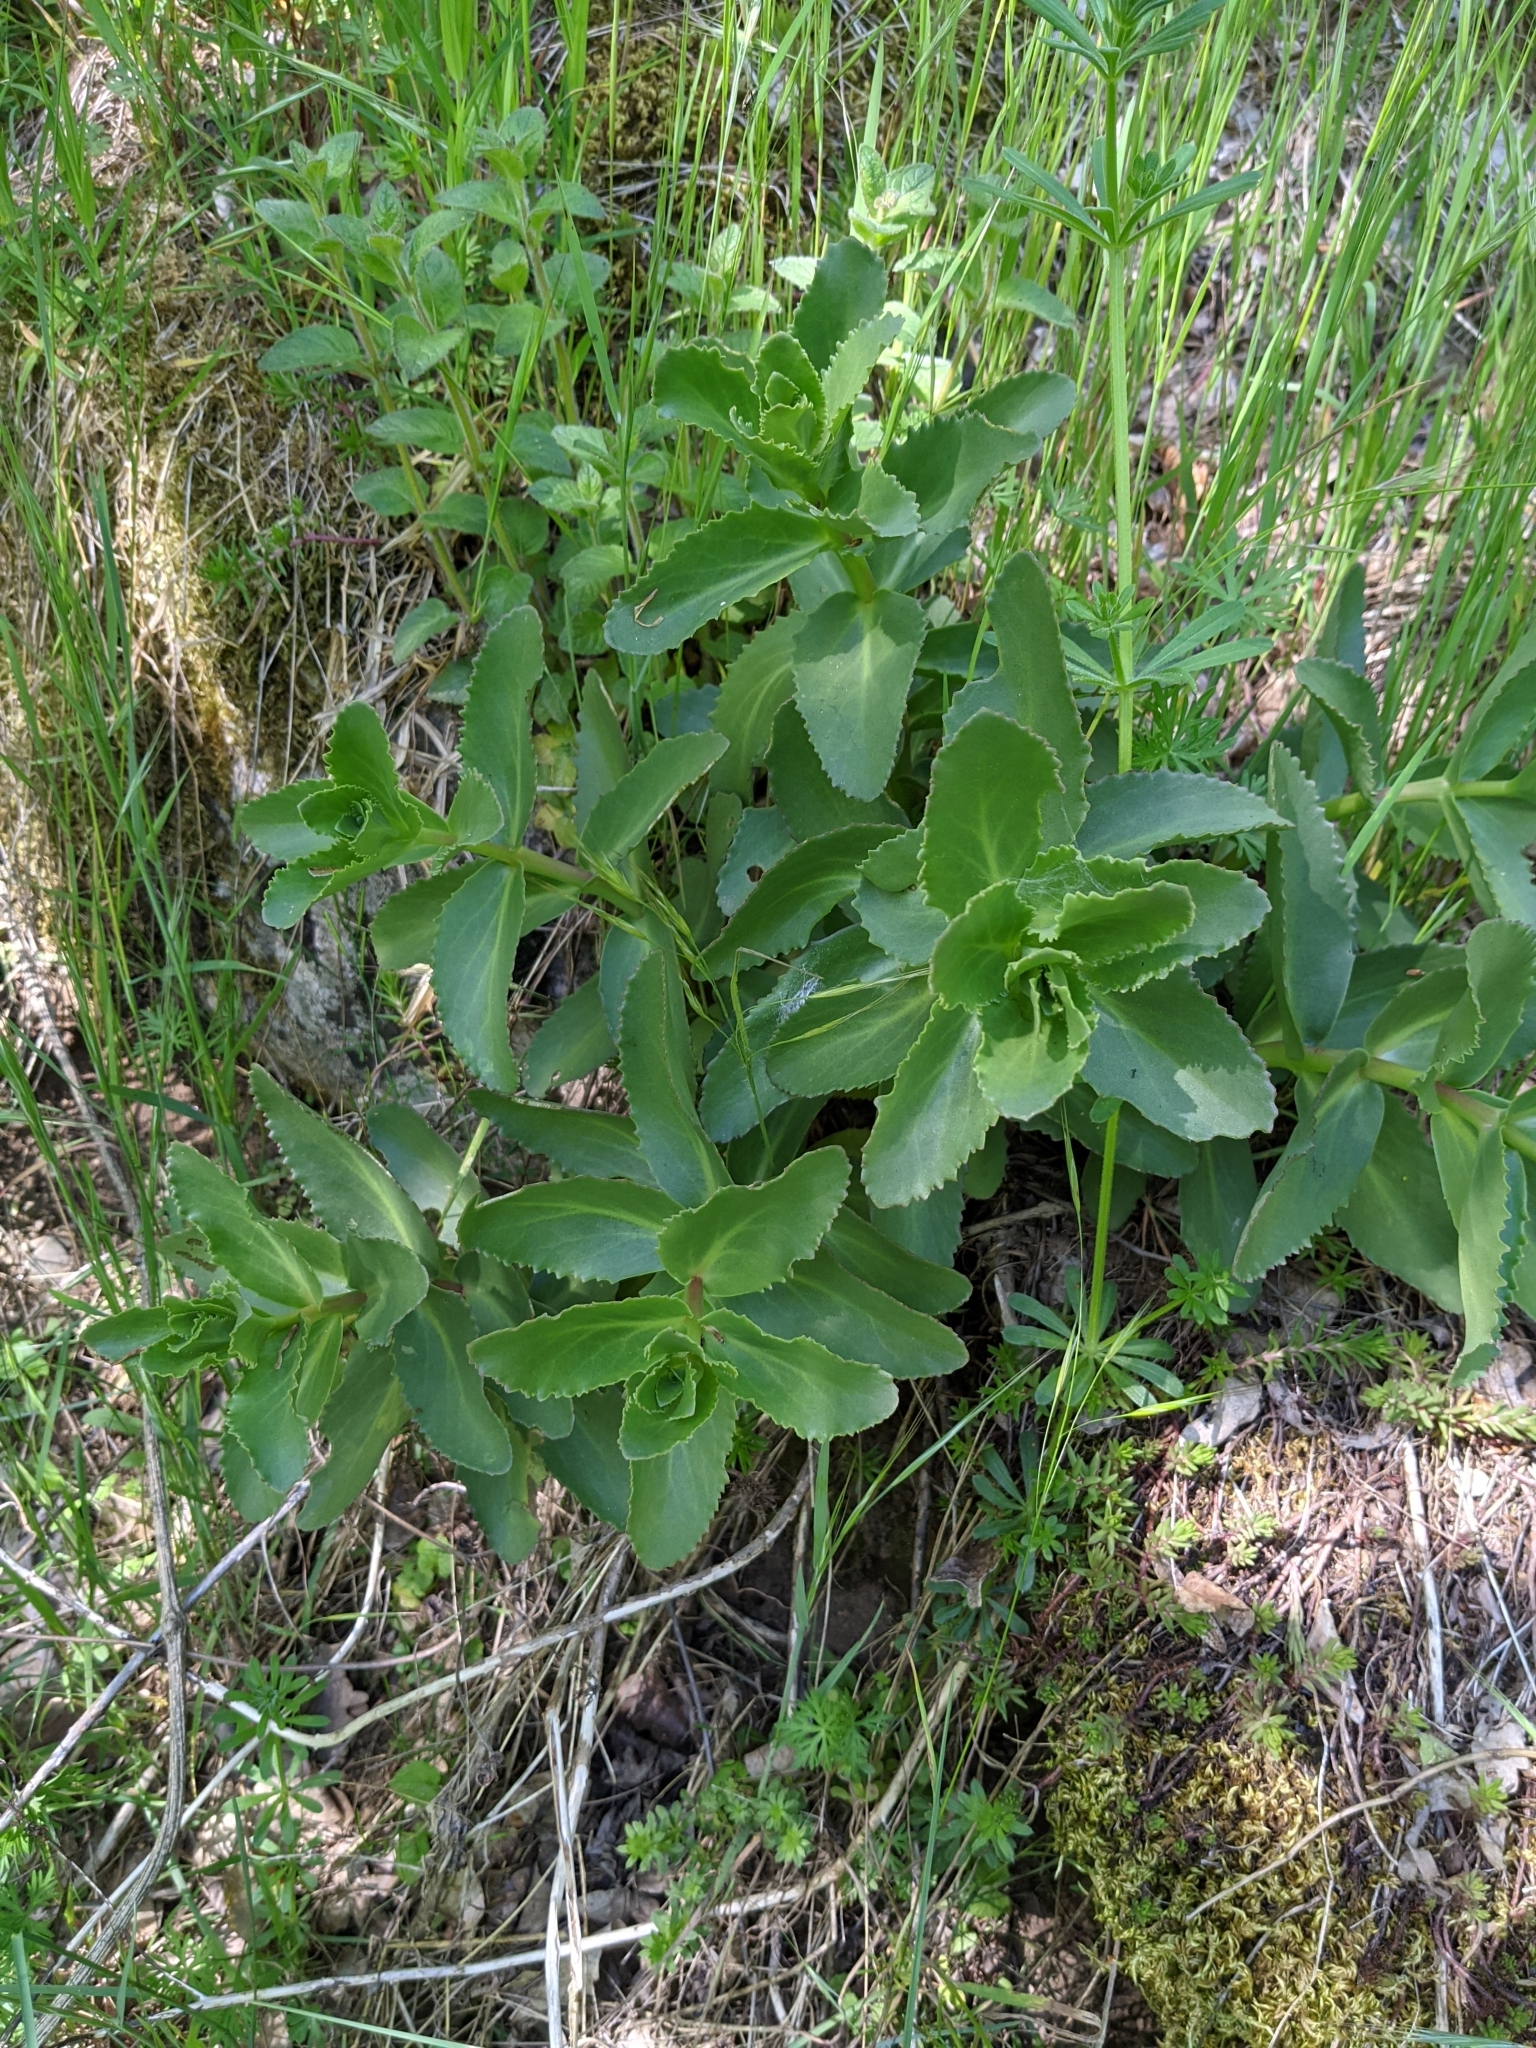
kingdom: Plantae
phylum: Tracheophyta
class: Magnoliopsida
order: Saxifragales
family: Crassulaceae
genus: Hylotelephium
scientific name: Hylotelephium maximum
